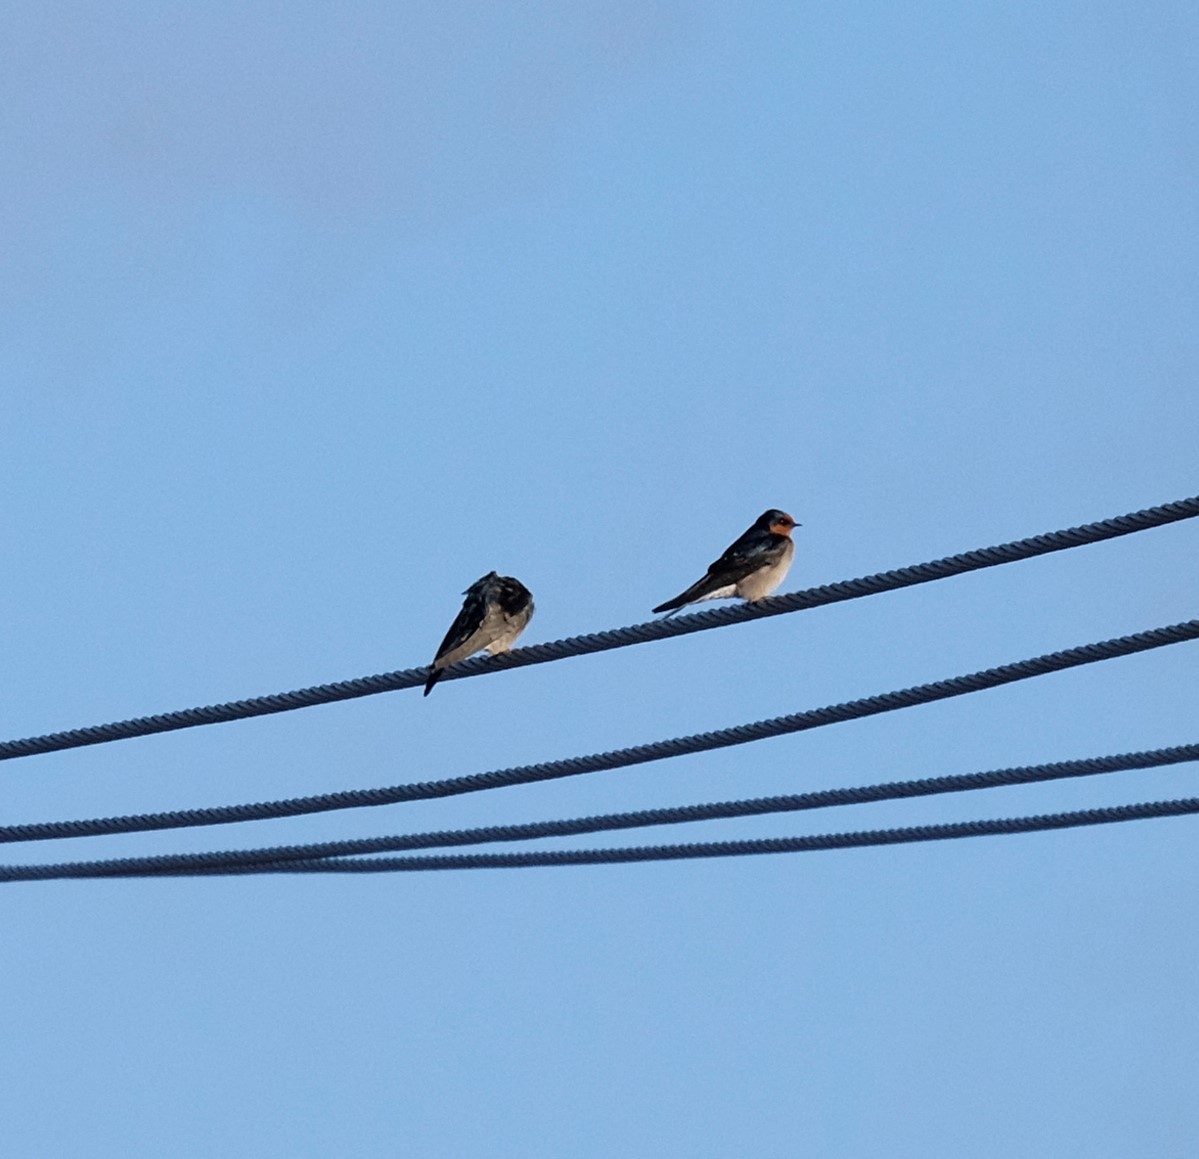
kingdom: Animalia
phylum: Chordata
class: Aves
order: Passeriformes
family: Hirundinidae
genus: Hirundo
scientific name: Hirundo neoxena
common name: Welcome swallow
